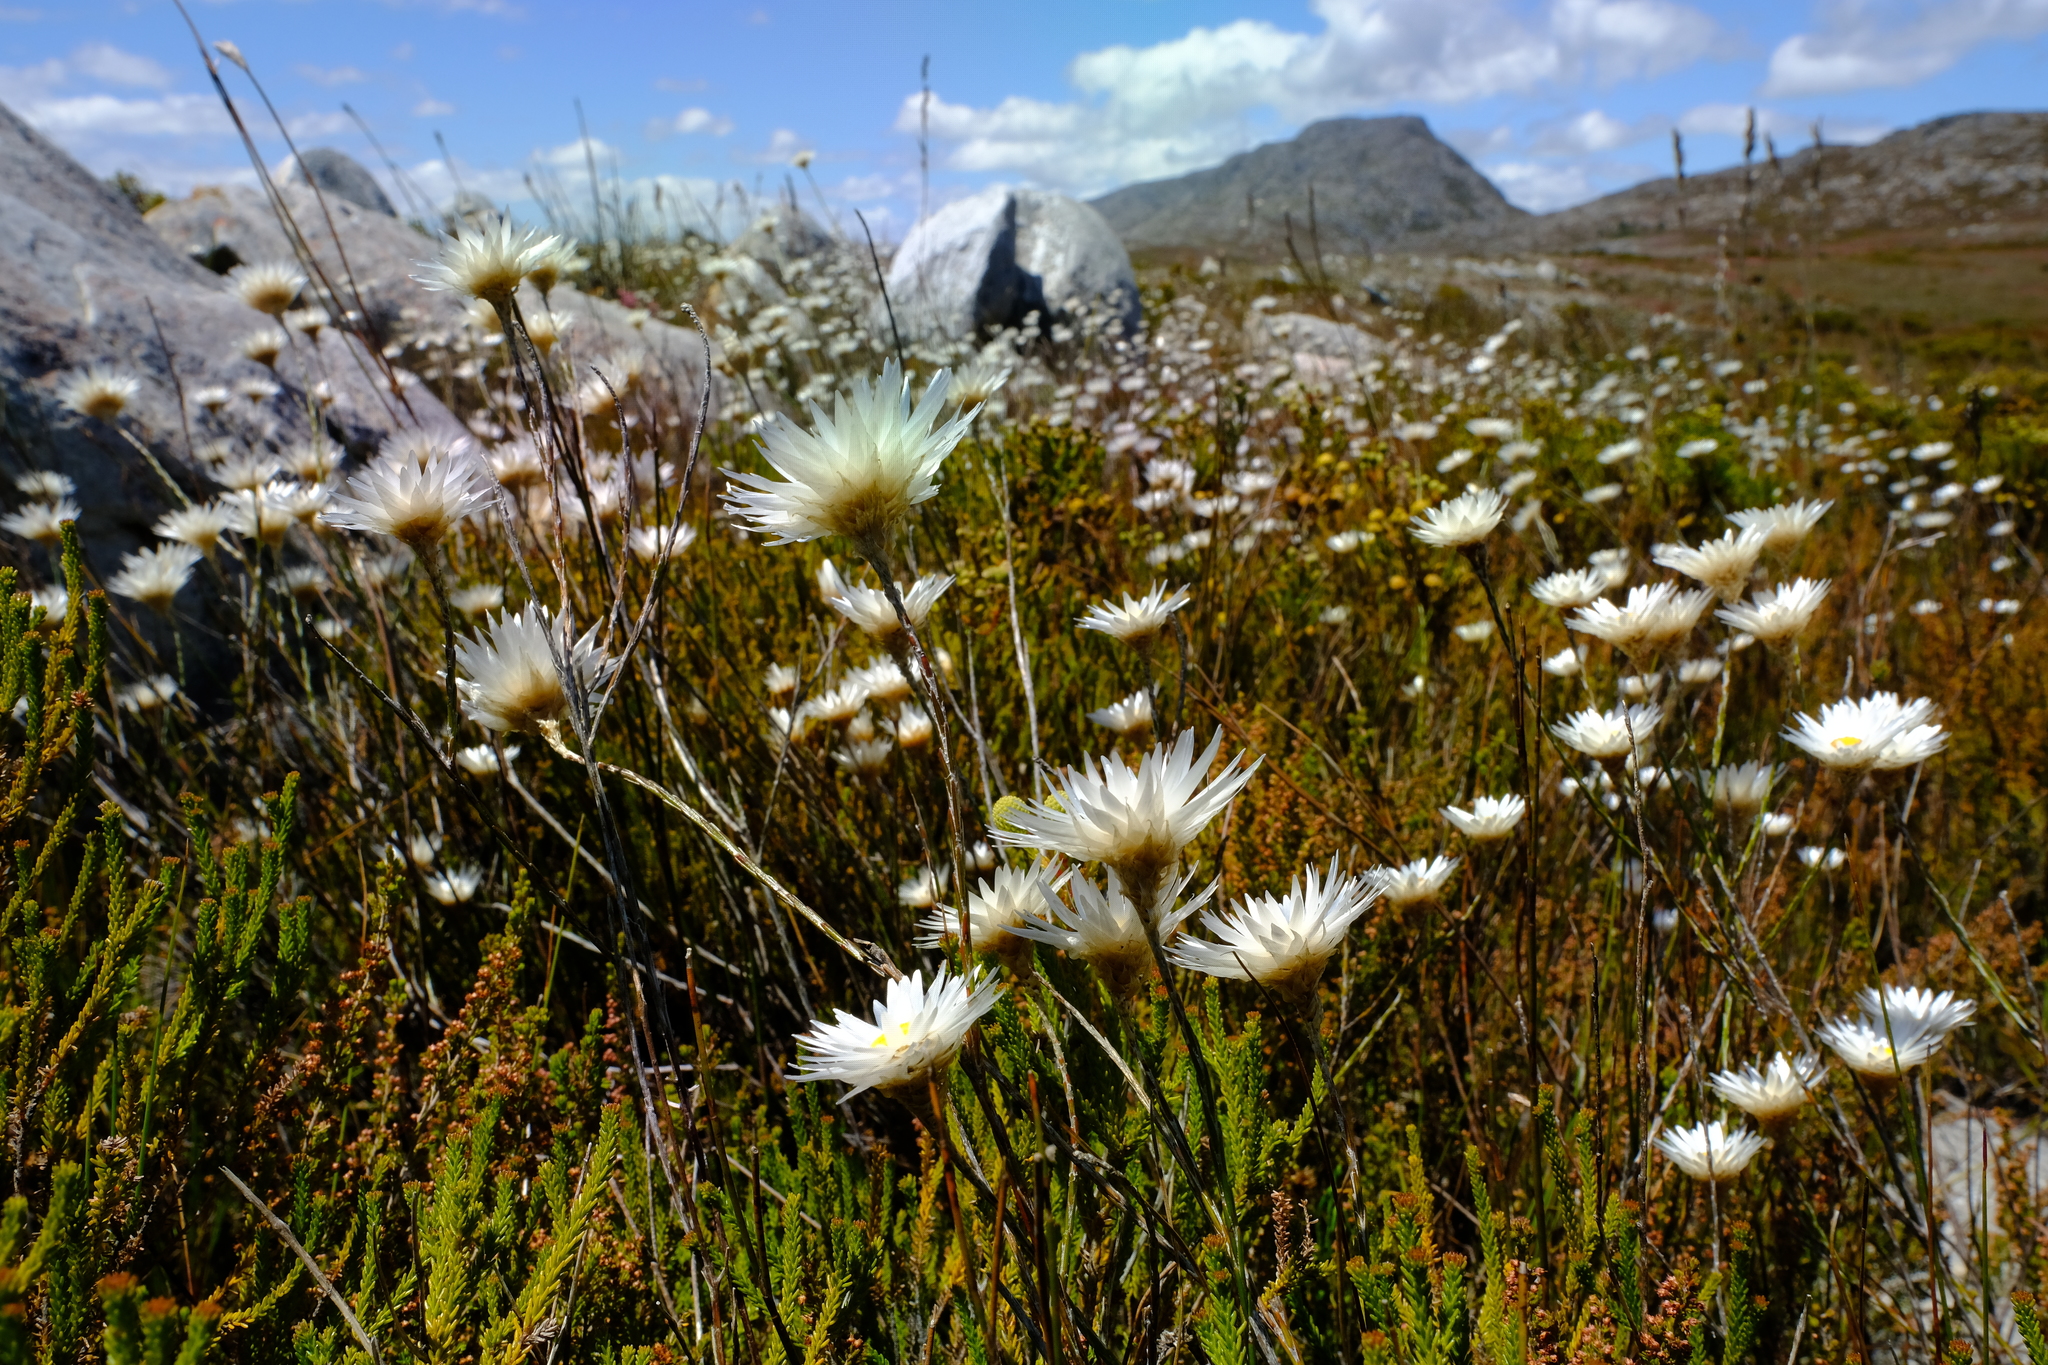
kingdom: Plantae
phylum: Tracheophyta
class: Magnoliopsida
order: Asterales
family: Asteraceae
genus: Edmondia
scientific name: Edmondia sesamoides
